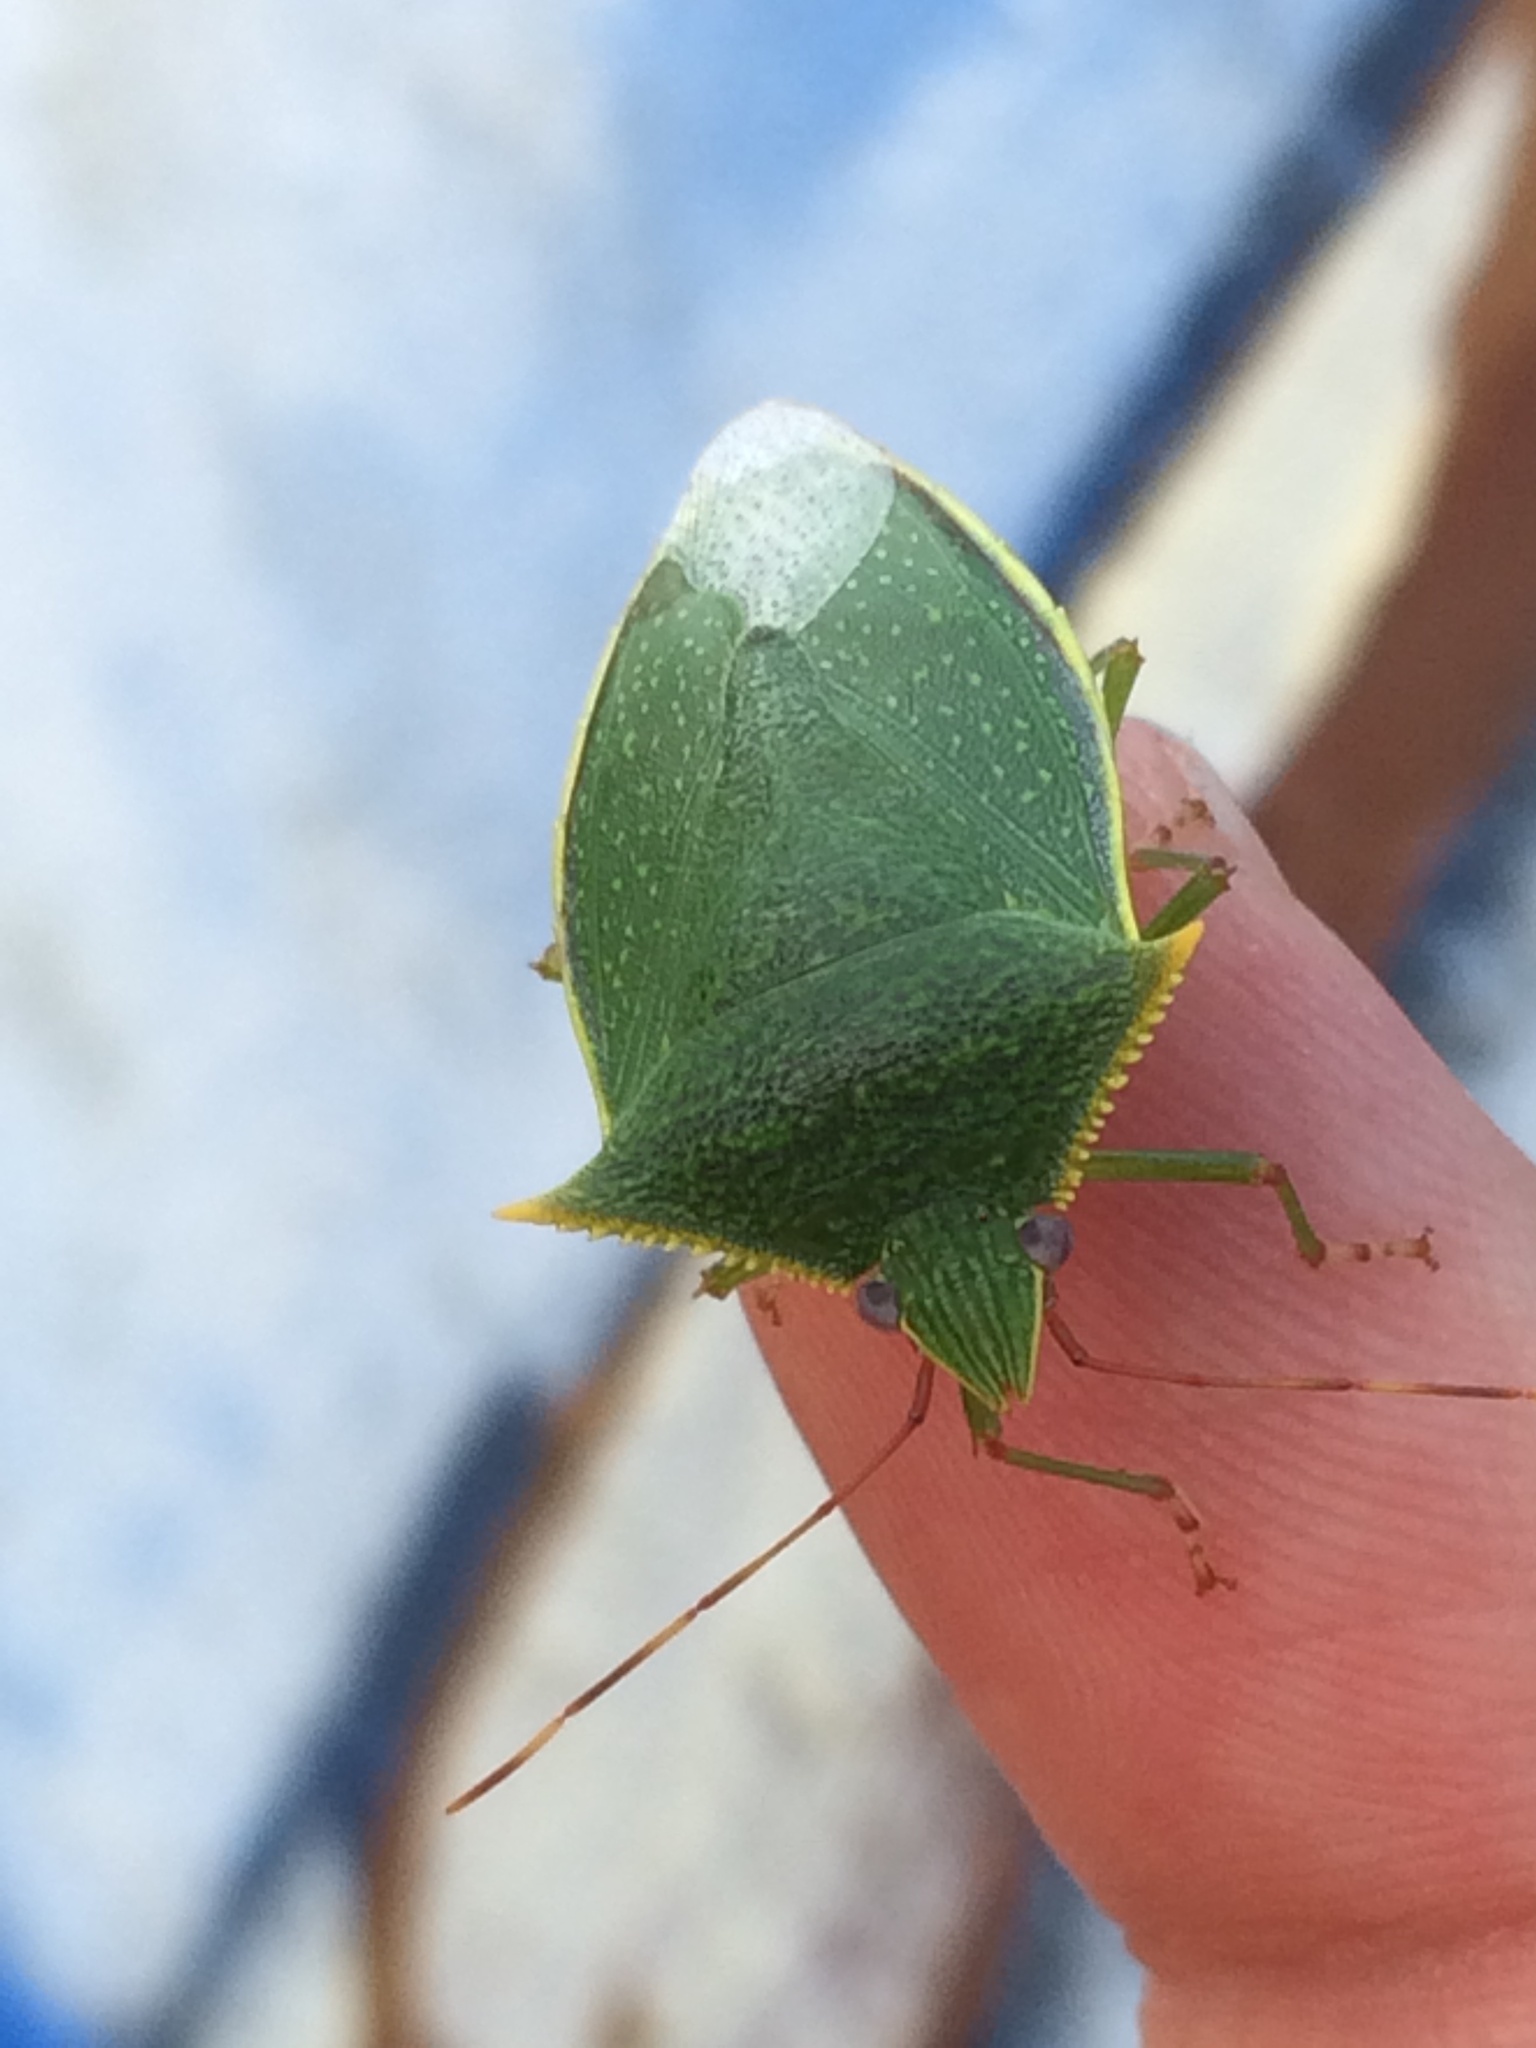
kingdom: Animalia
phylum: Arthropoda
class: Insecta
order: Hemiptera
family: Pentatomidae
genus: Loxa
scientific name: Loxa viridis
